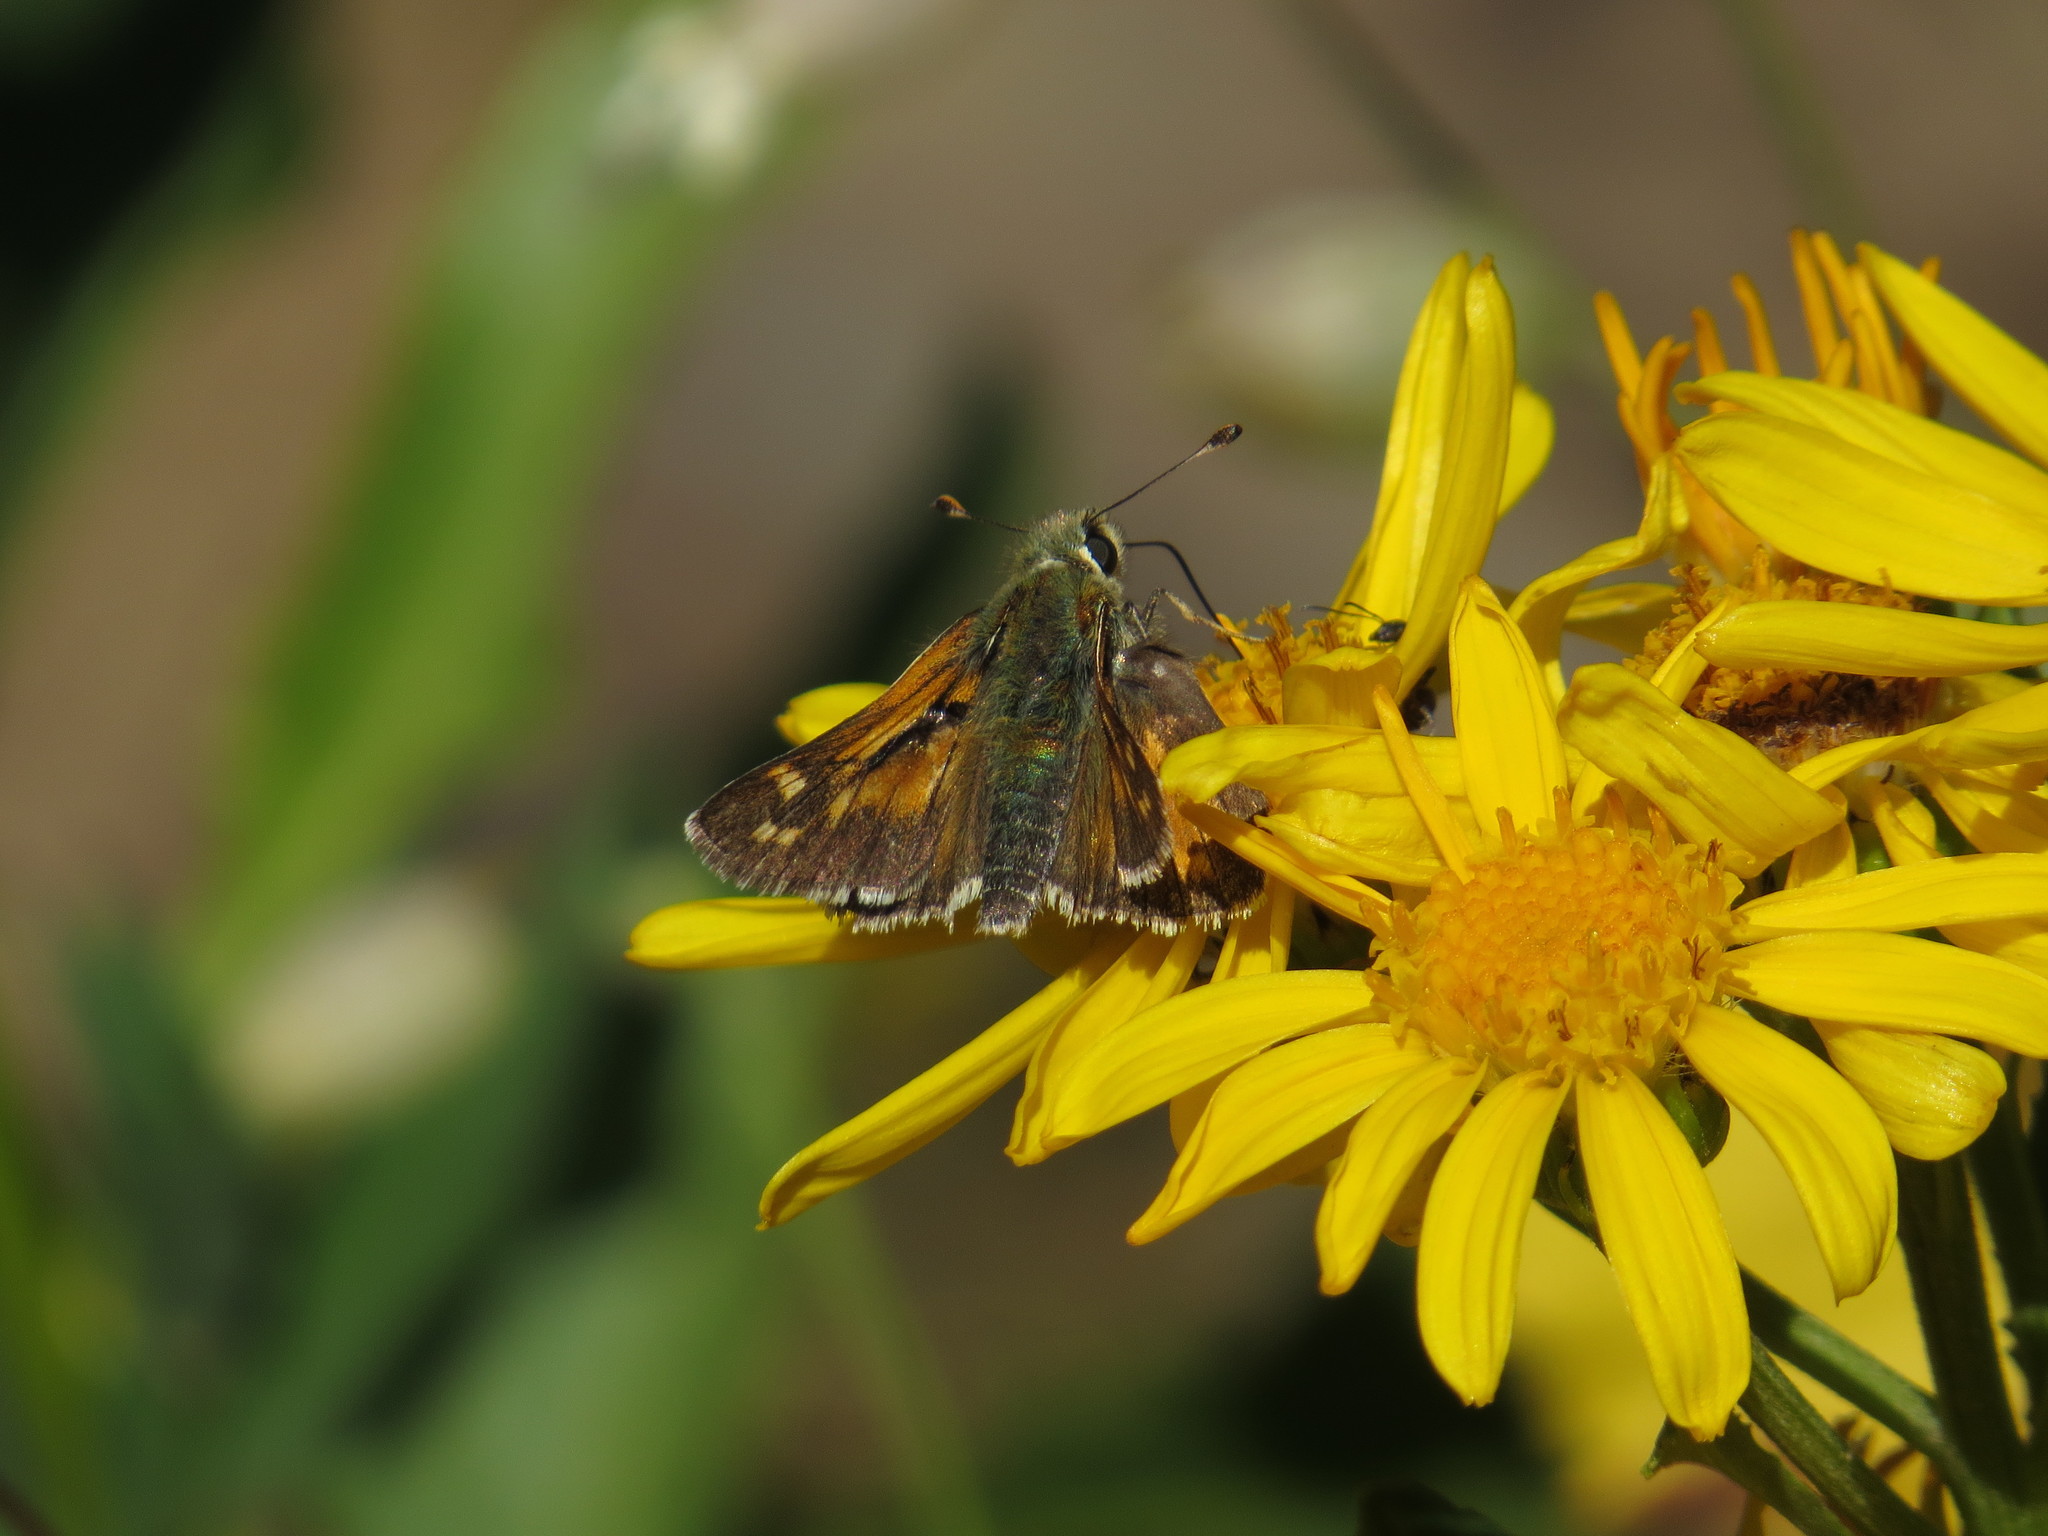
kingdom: Animalia
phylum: Arthropoda
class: Insecta
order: Lepidoptera
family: Hesperiidae
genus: Hesperia
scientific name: Hesperia comma
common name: Common branded skipper
